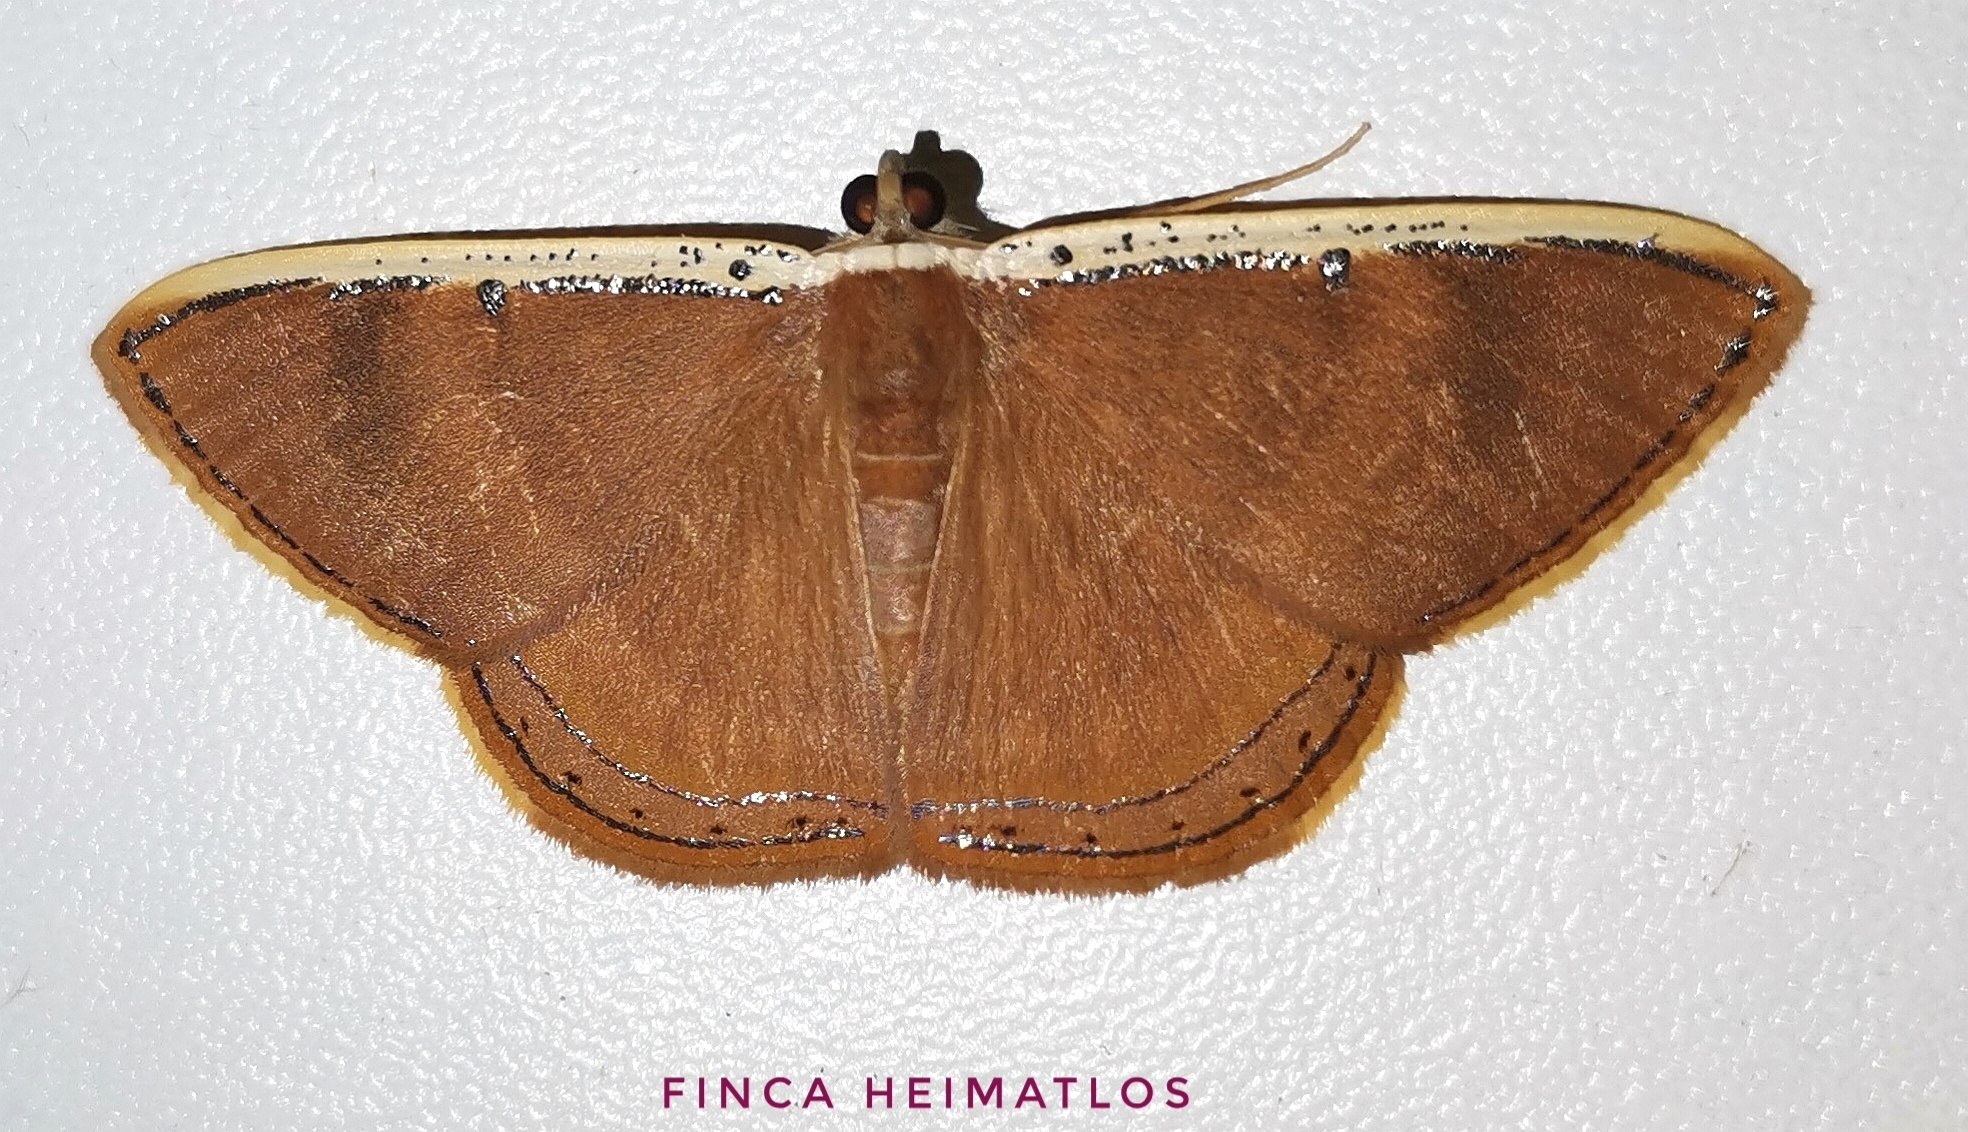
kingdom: Animalia
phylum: Arthropoda
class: Insecta
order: Lepidoptera
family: Geometridae
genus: Palyas
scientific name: Palyas micacearia
